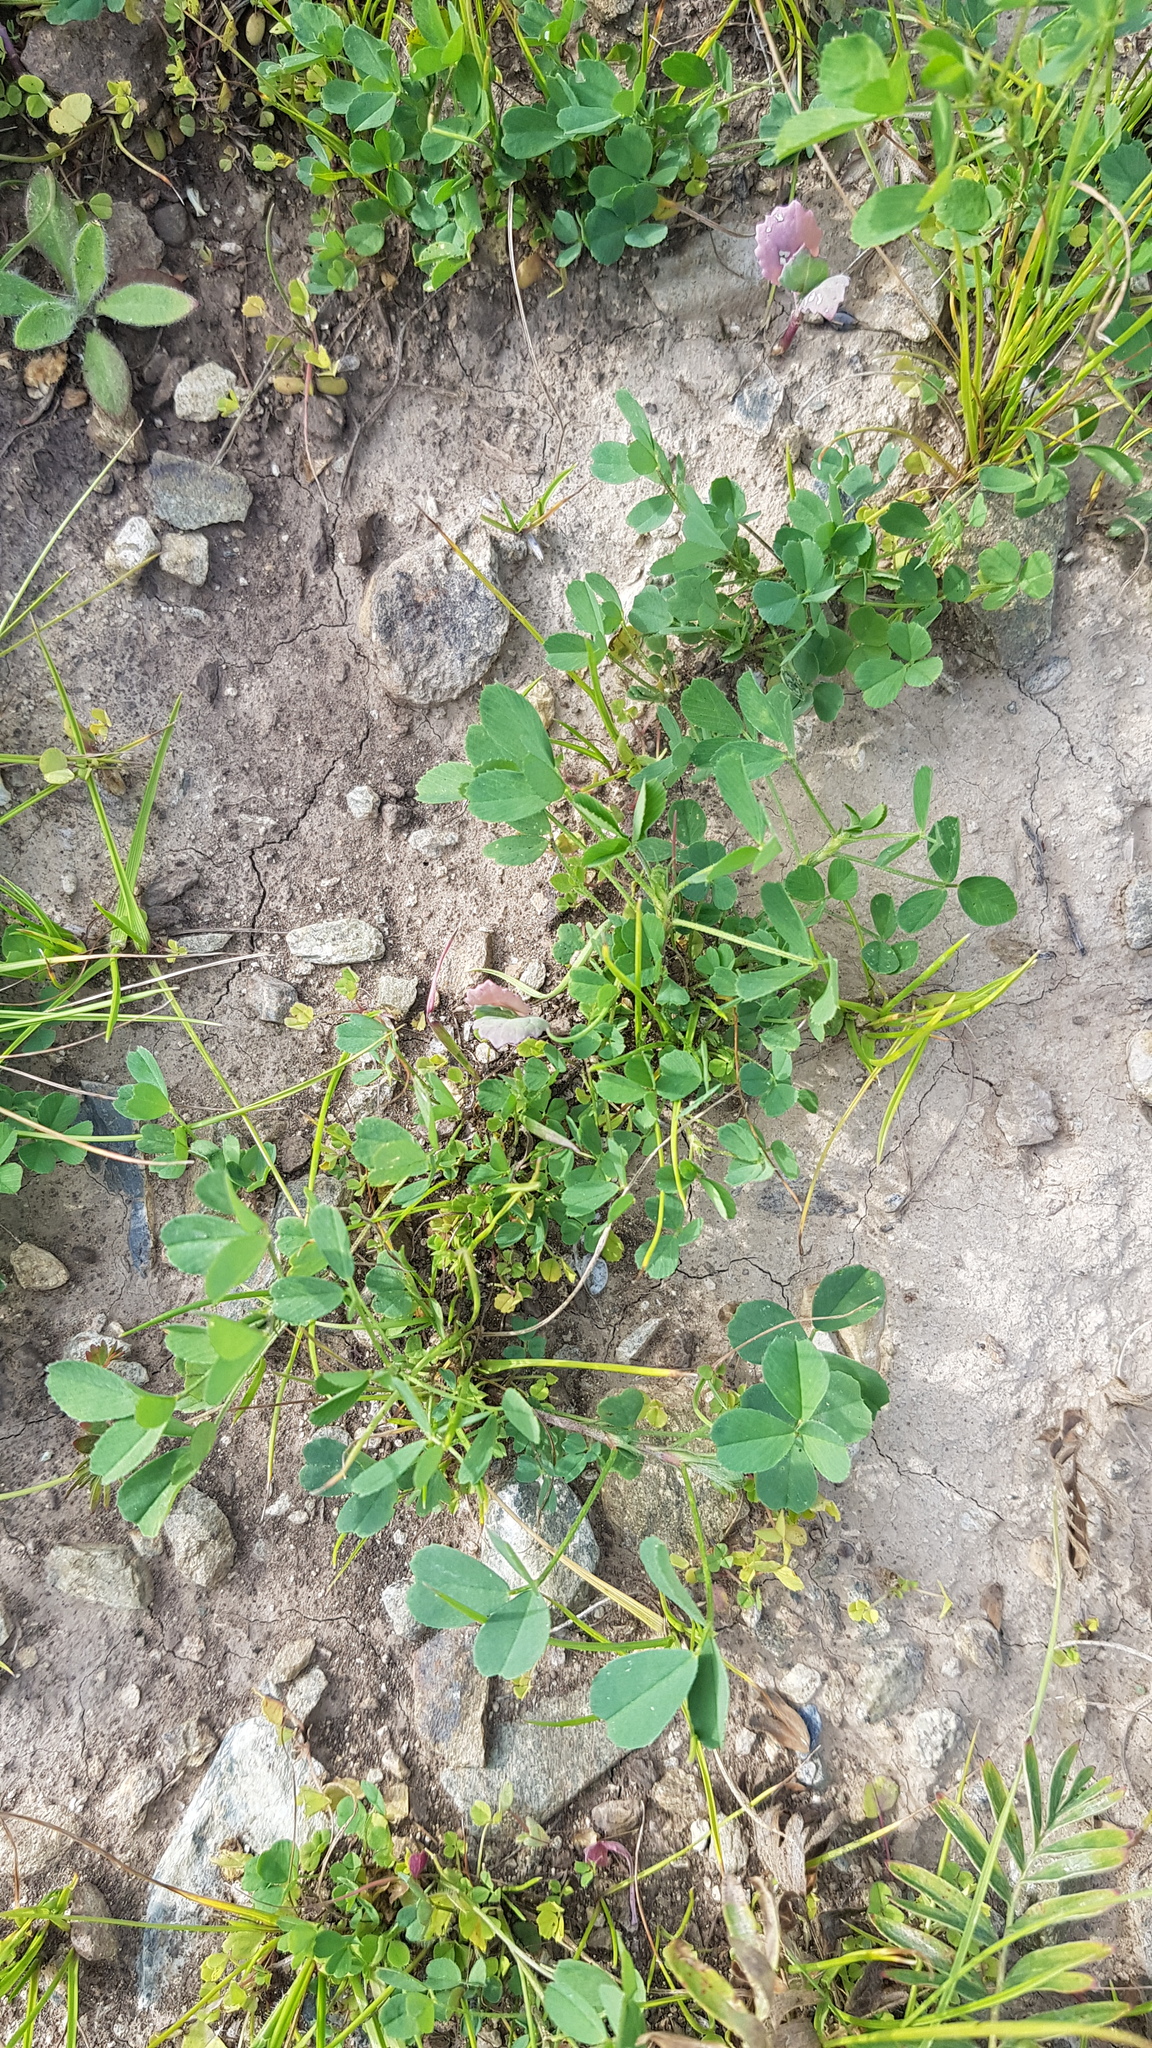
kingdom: Plantae
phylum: Tracheophyta
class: Magnoliopsida
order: Fabales
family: Fabaceae
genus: Medicago
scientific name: Medicago lupulina
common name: Black medick
